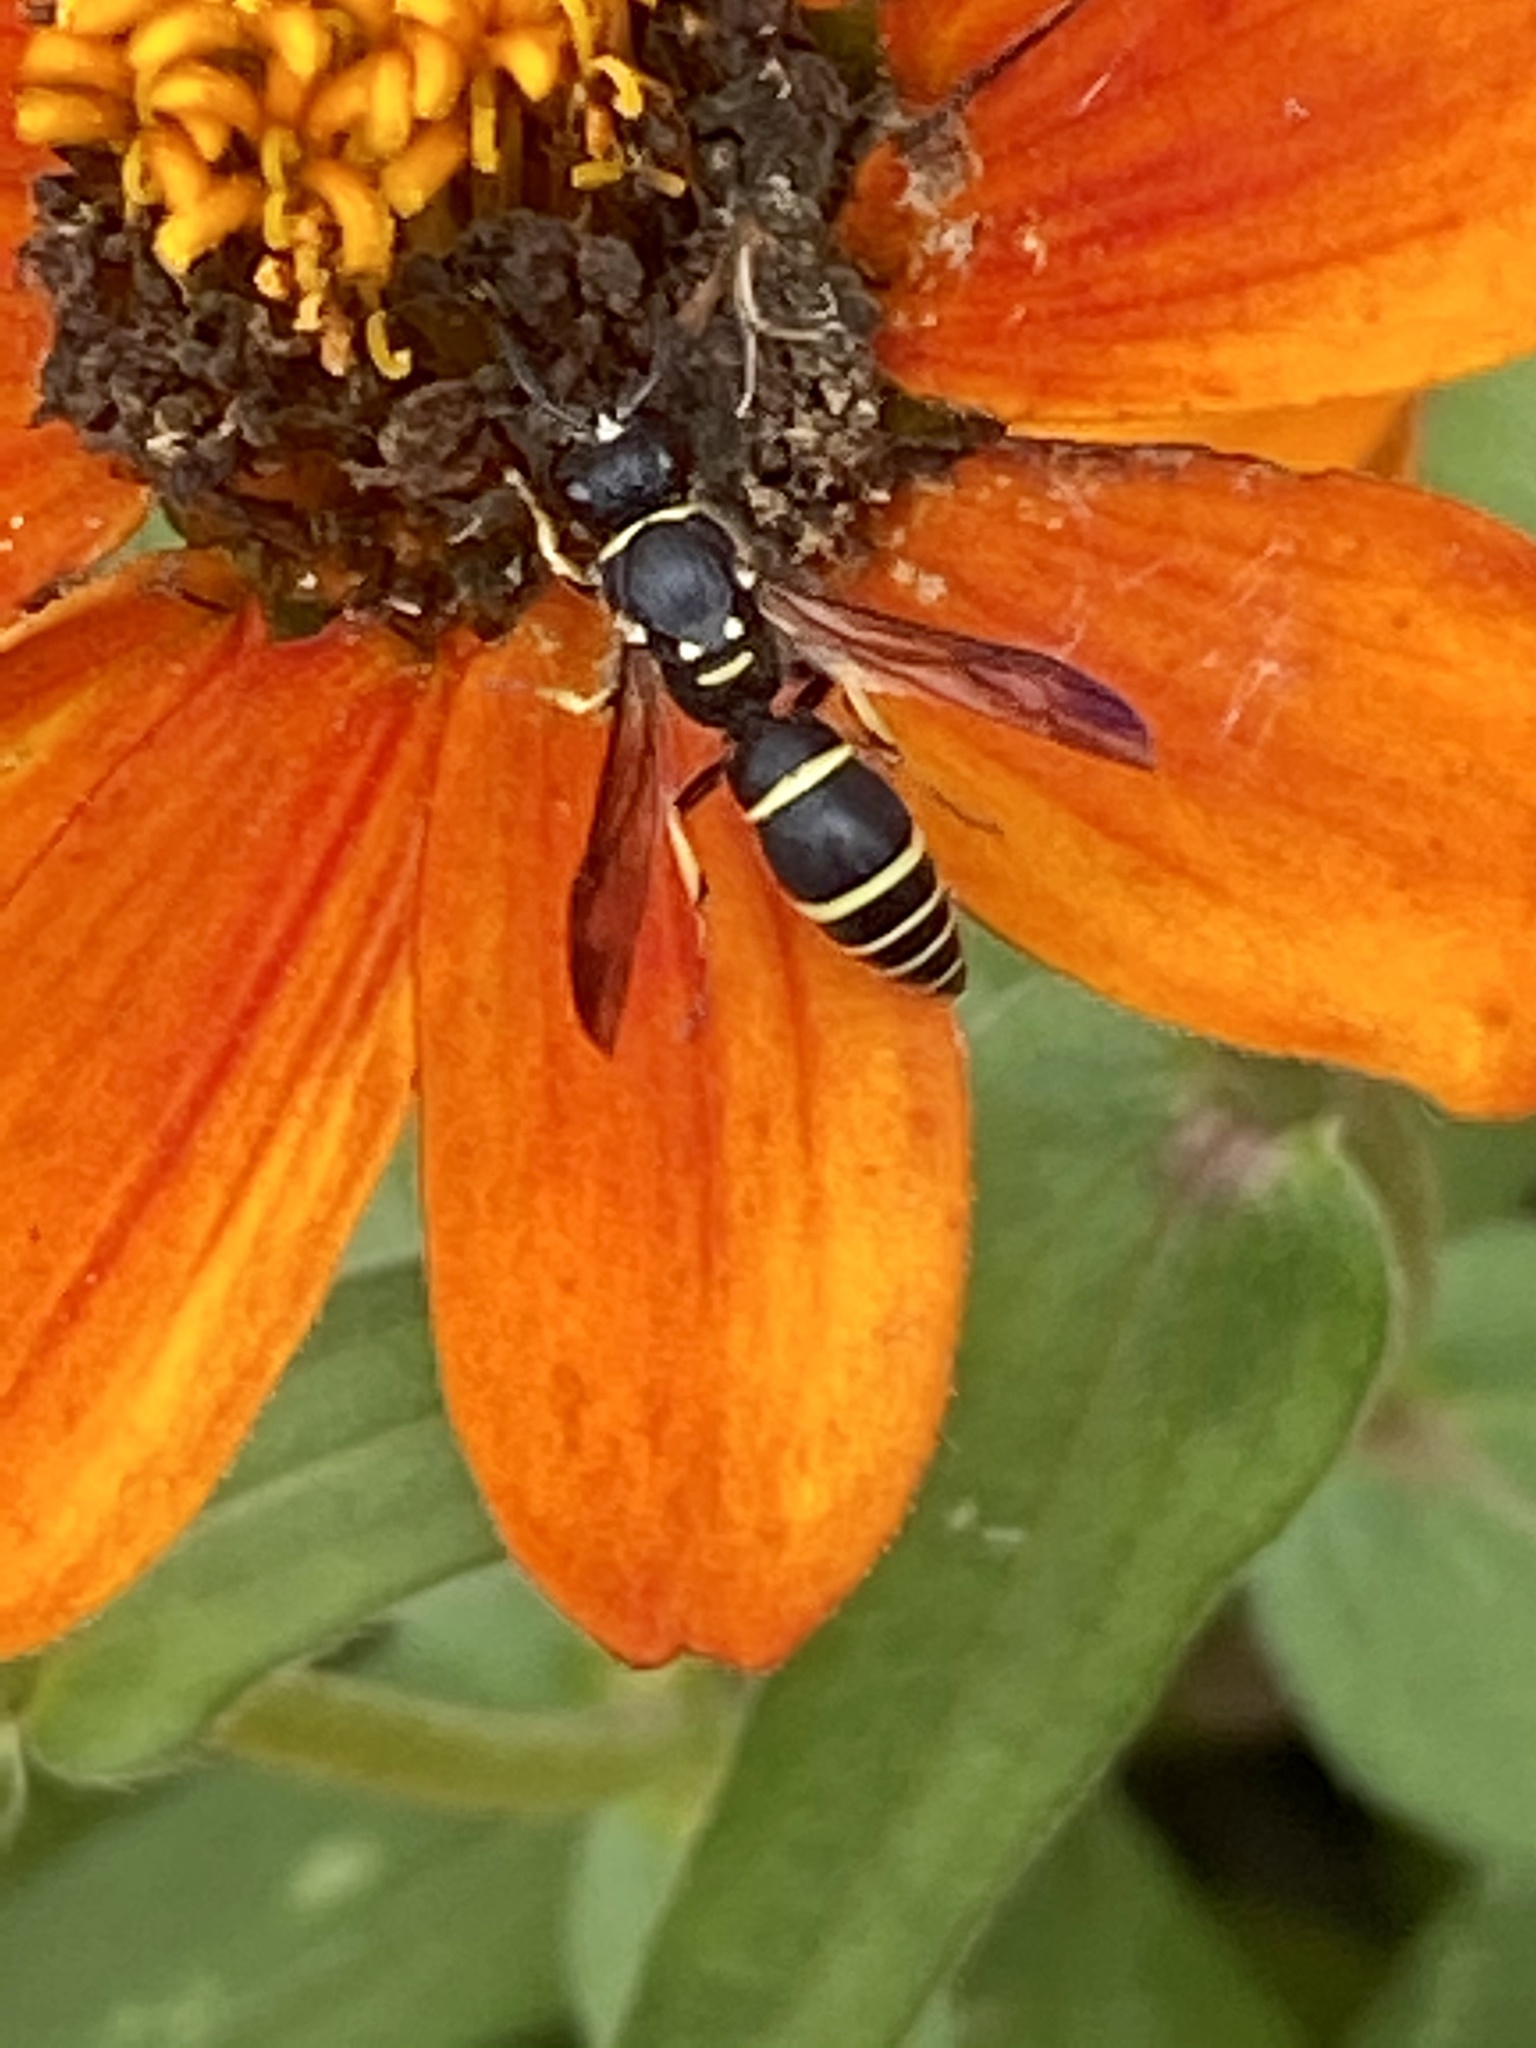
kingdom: Animalia
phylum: Arthropoda
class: Insecta
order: Hymenoptera
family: Vespidae
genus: Ancistrocerus
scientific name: Ancistrocerus adiabatus
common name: Bramble mason wasp
